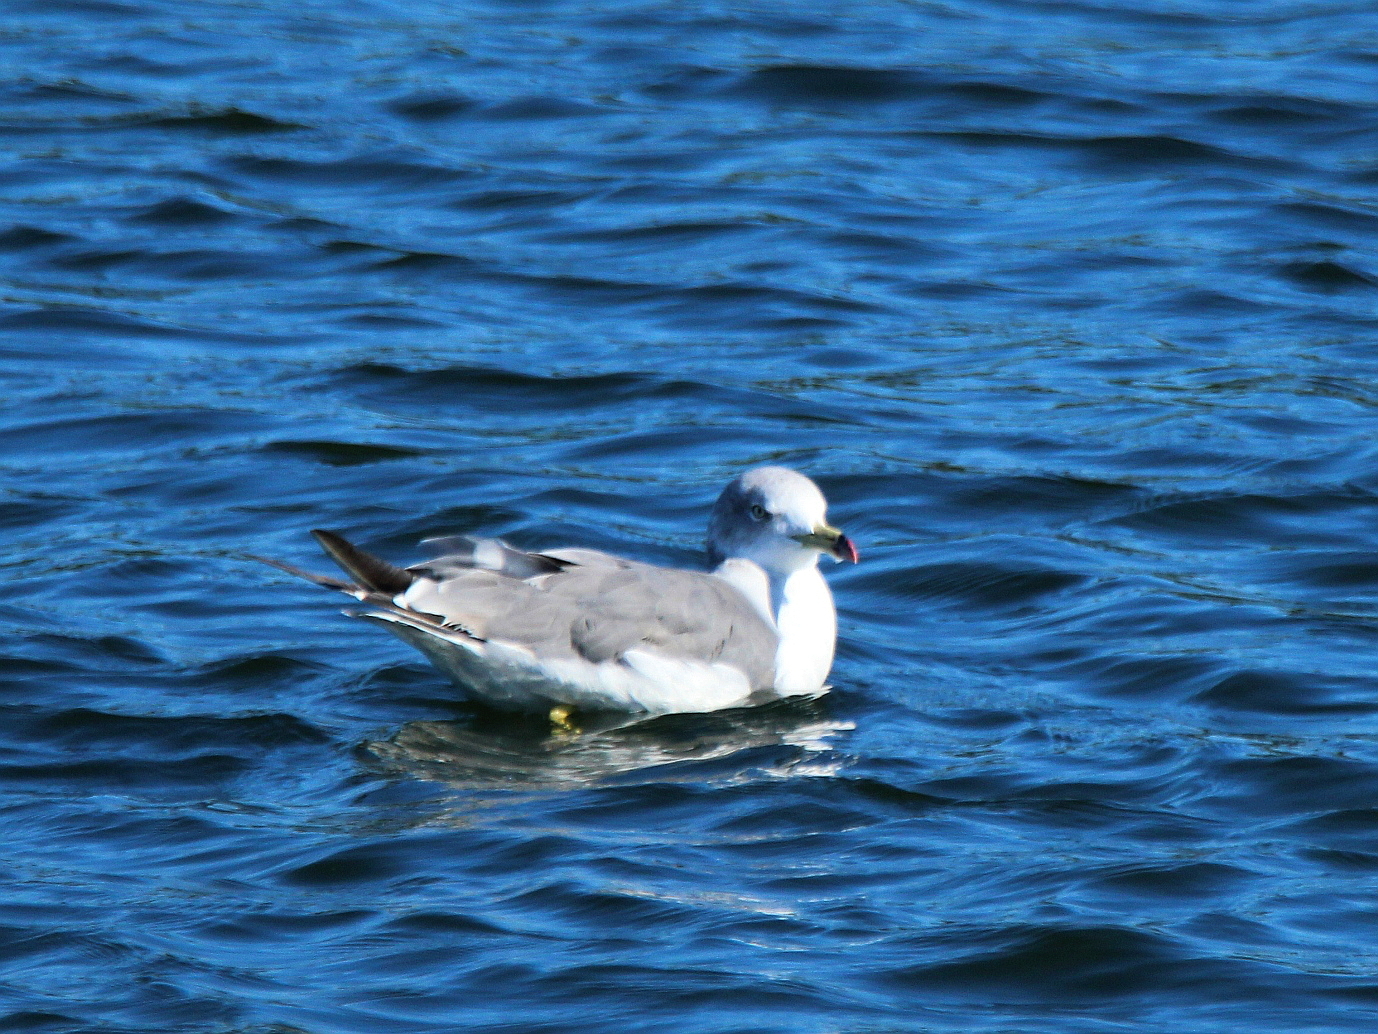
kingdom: Animalia
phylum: Chordata
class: Aves
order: Charadriiformes
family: Laridae
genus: Larus
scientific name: Larus crassirostris
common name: Black-tailed gull
